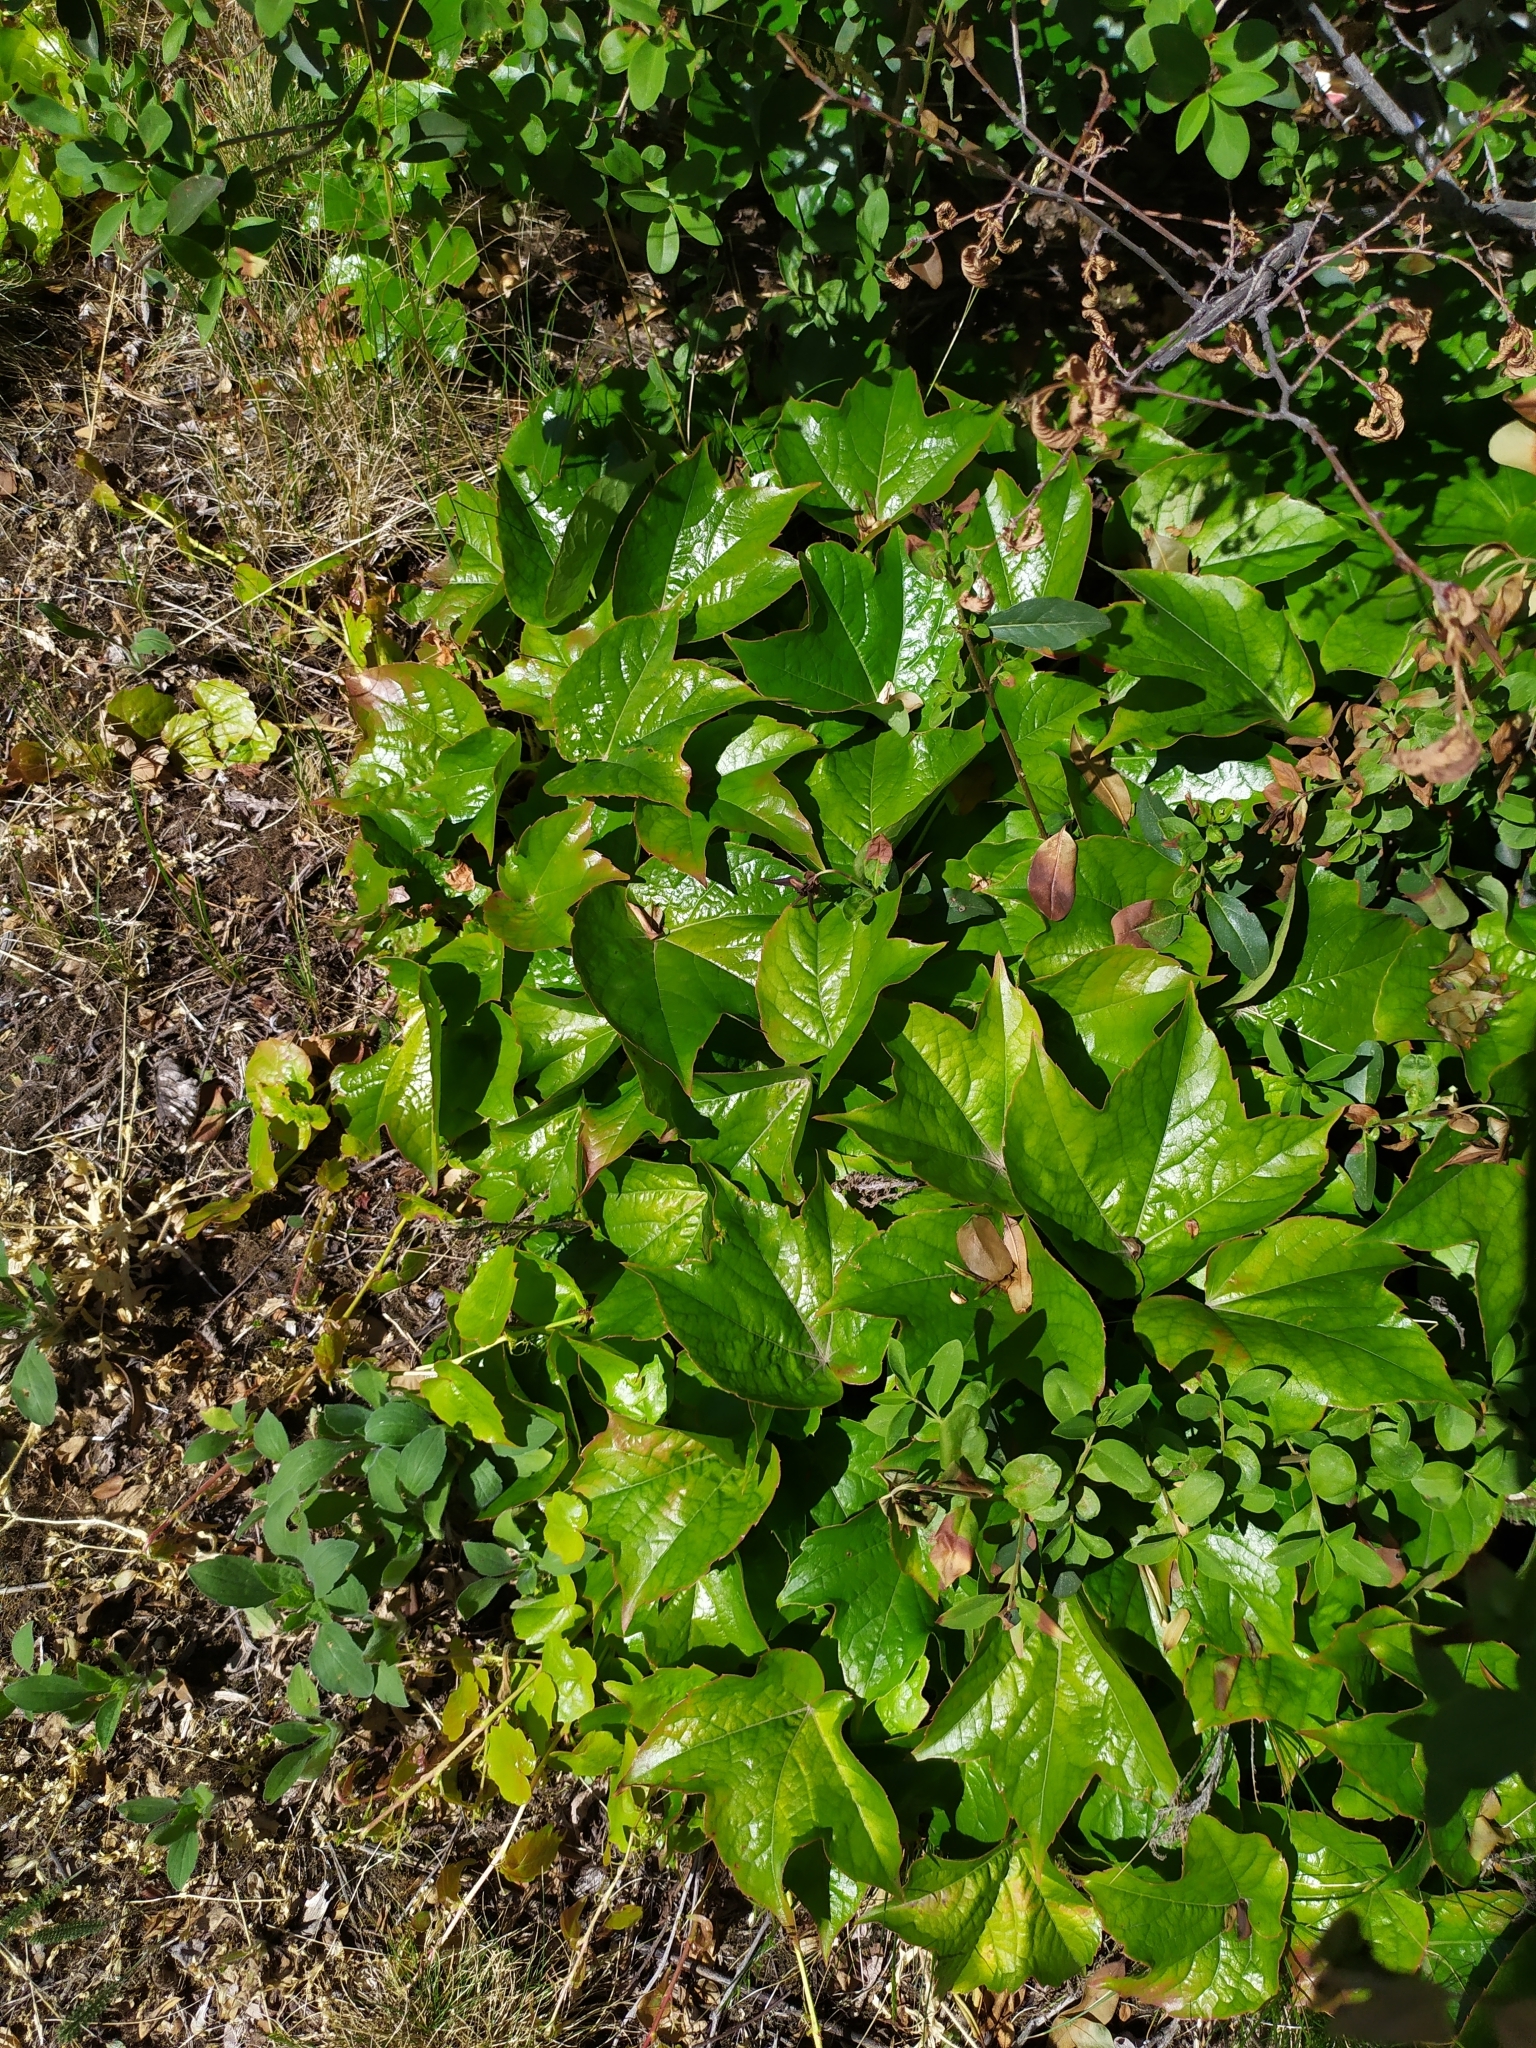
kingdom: Plantae
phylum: Tracheophyta
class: Magnoliopsida
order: Vitales
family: Vitaceae
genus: Parthenocissus
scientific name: Parthenocissus tricuspidata
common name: Boston ivy
